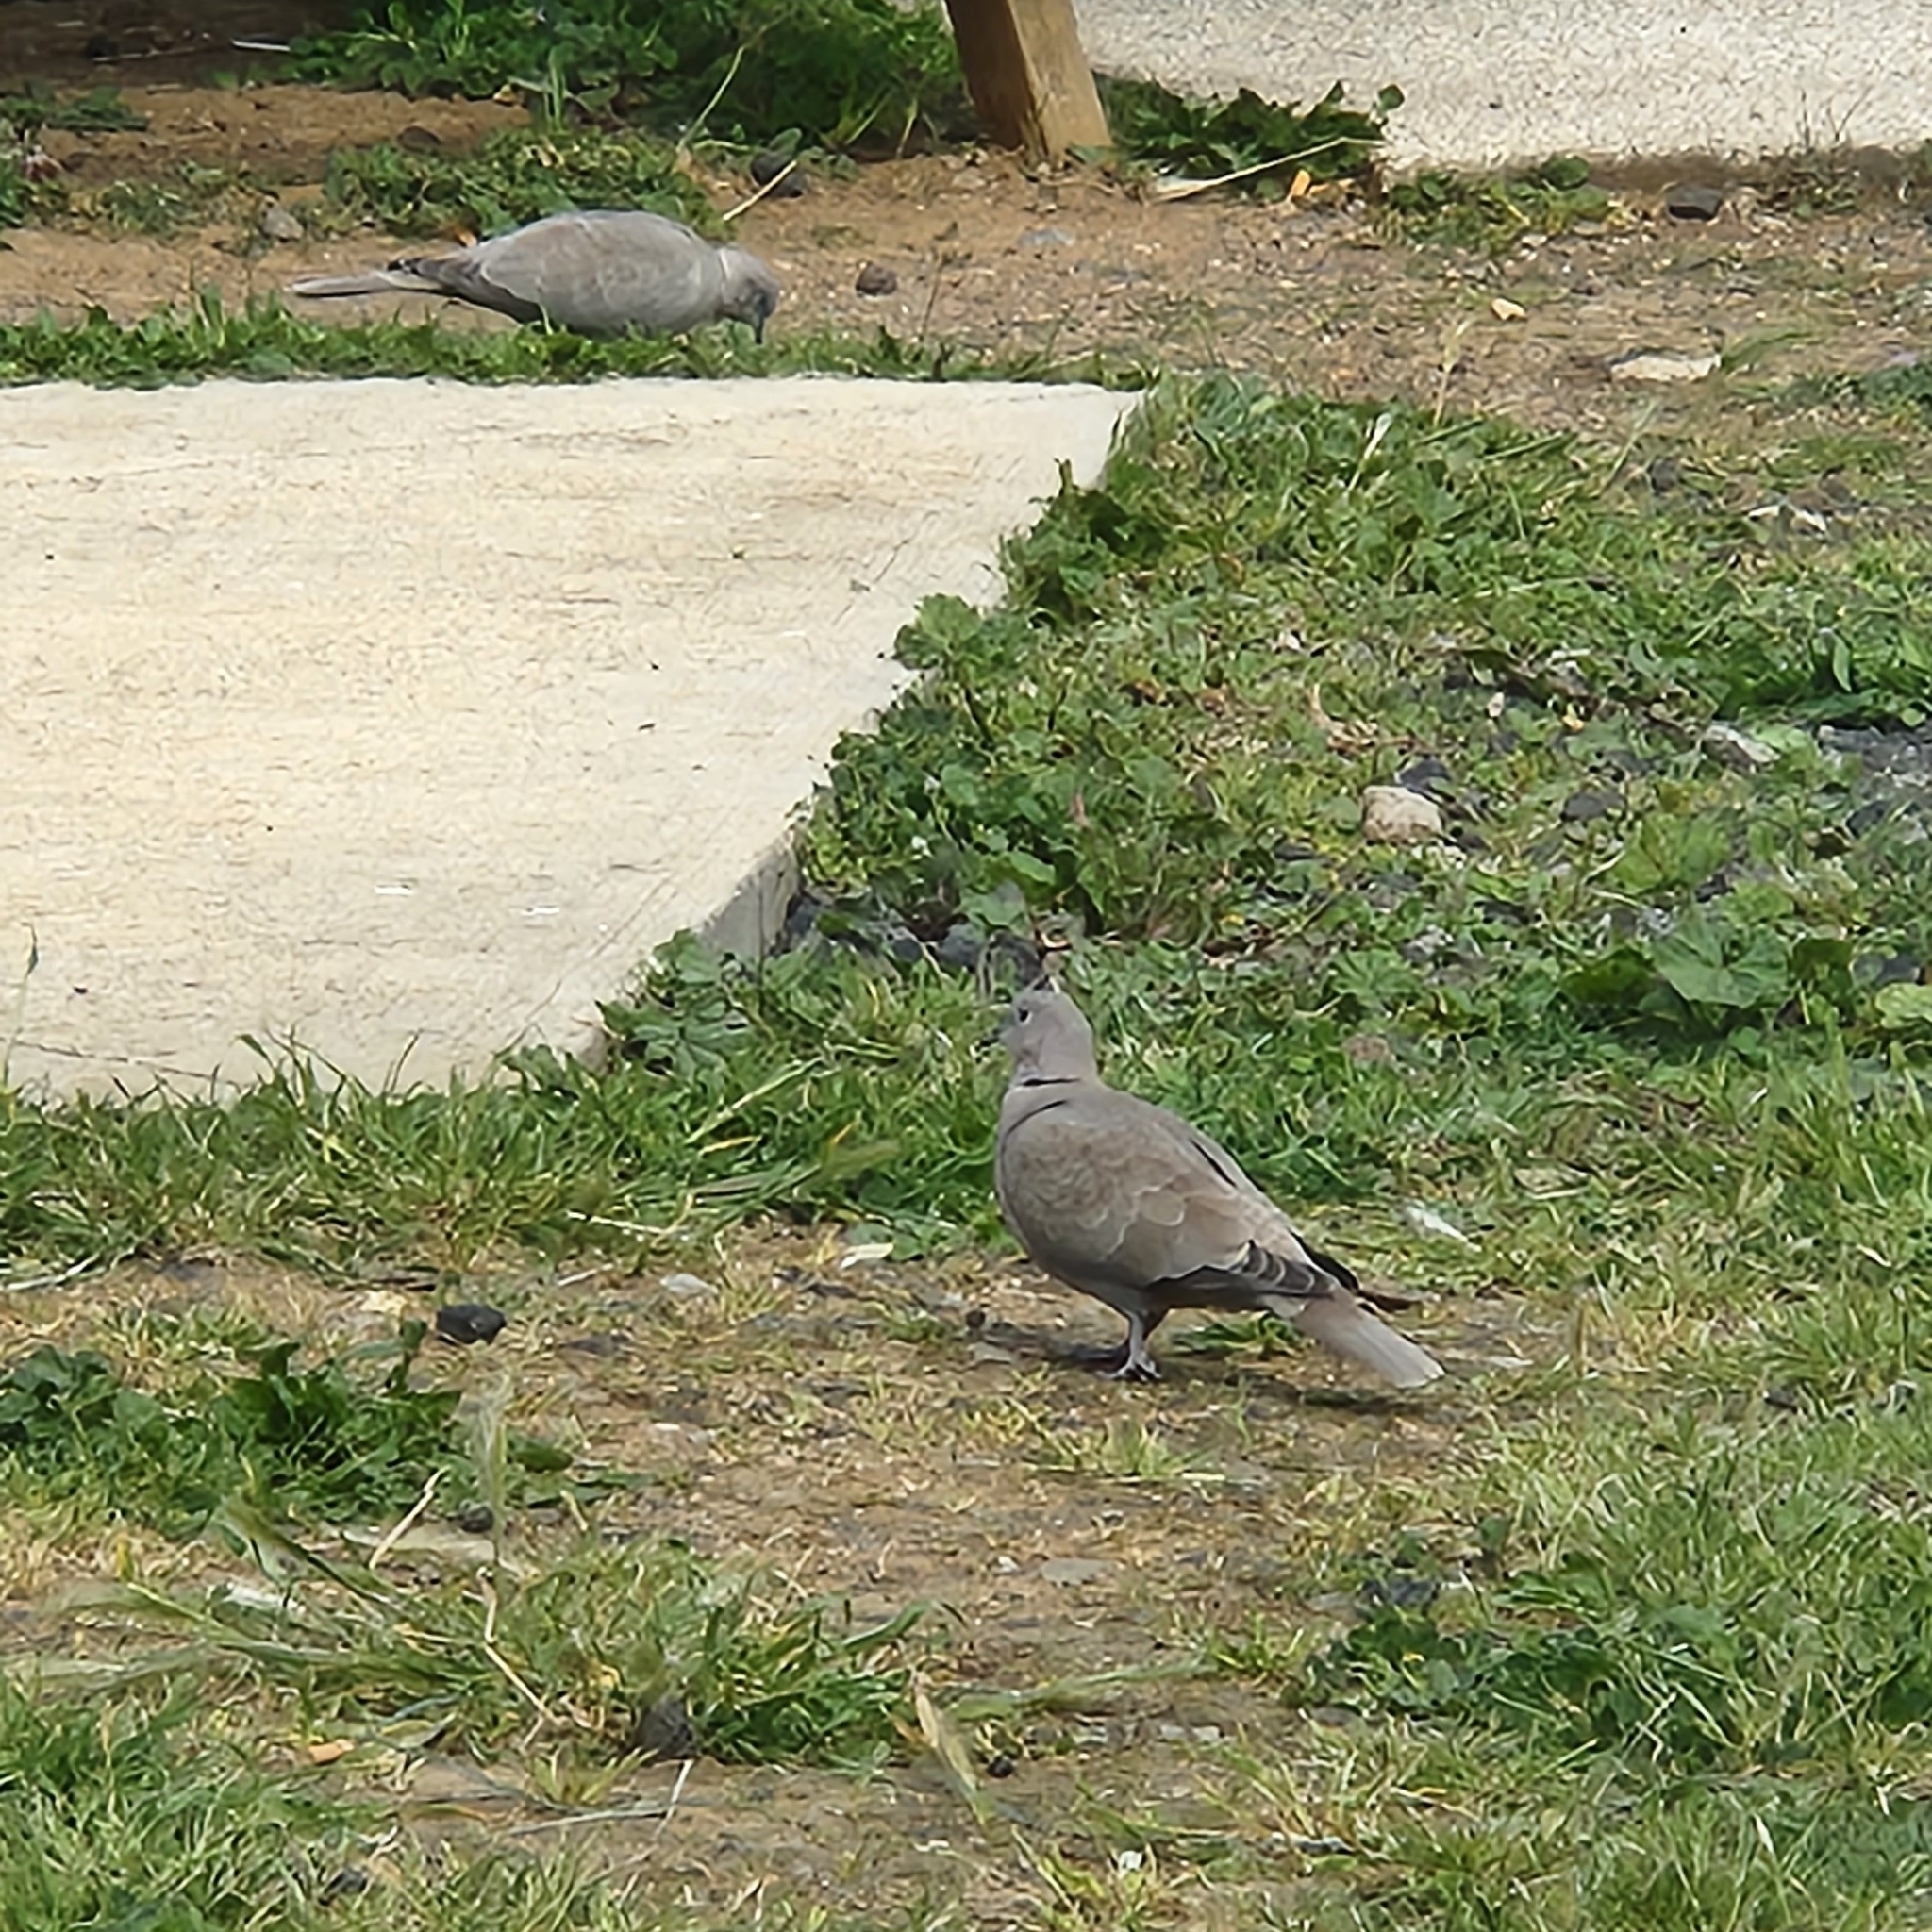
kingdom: Animalia
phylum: Chordata
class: Aves
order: Columbiformes
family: Columbidae
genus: Streptopelia
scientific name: Streptopelia decaocto
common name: Eurasian collared dove
